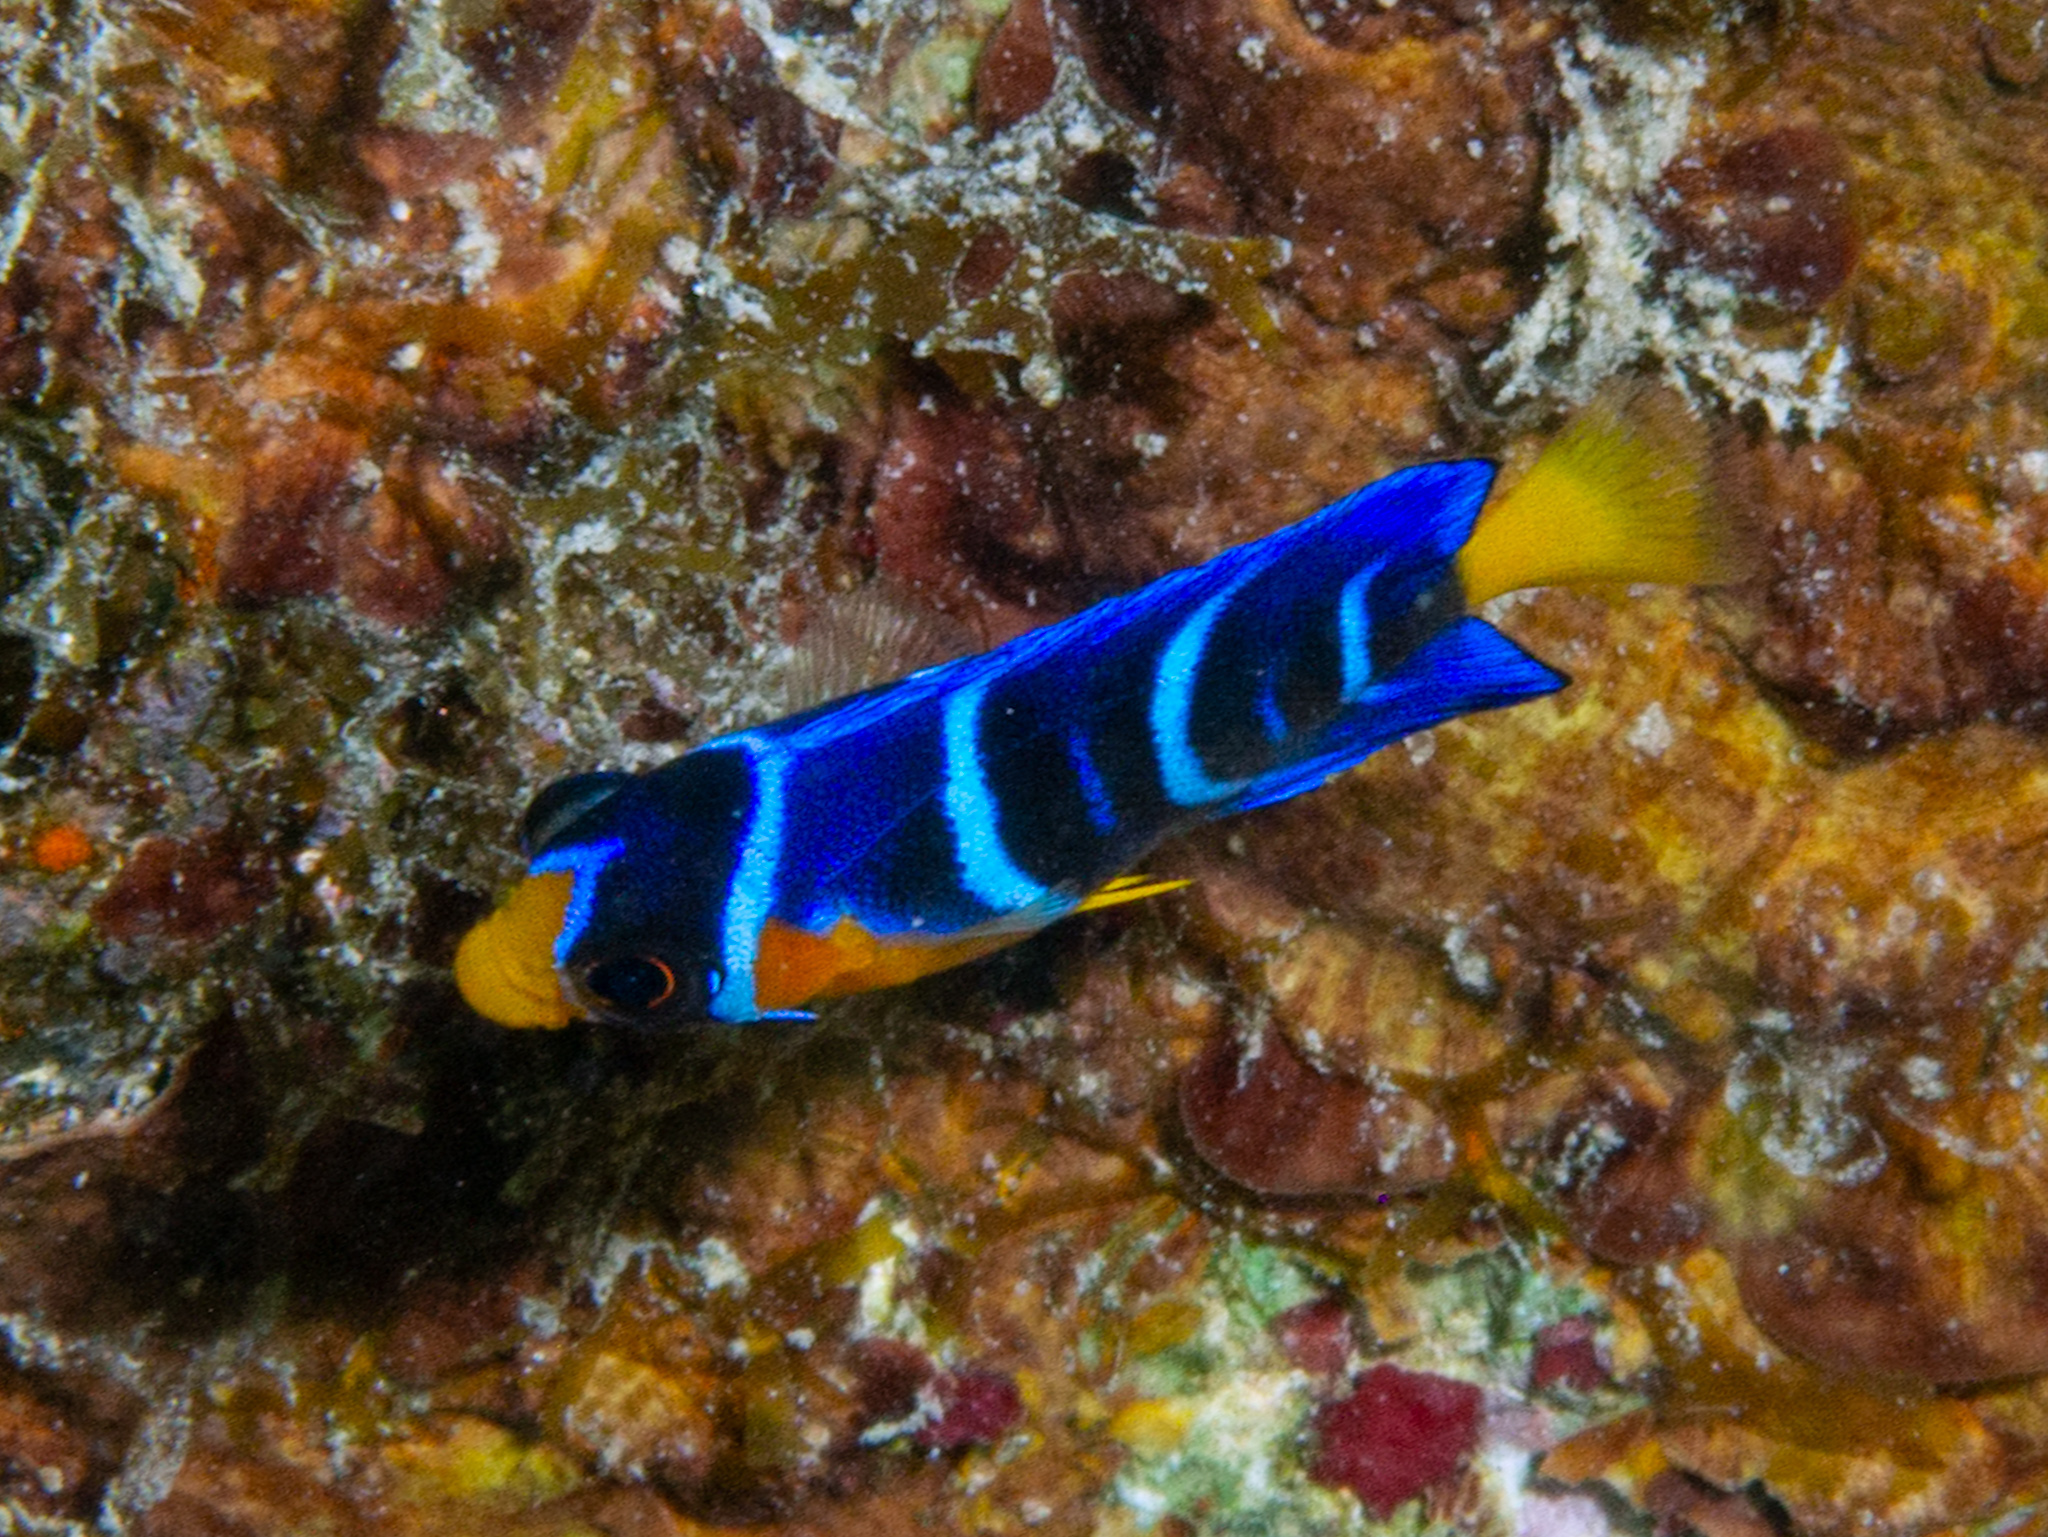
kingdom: Animalia
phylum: Chordata
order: Perciformes
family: Pomacanthidae
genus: Holacanthus
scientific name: Holacanthus ciliaris
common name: Queen angelfish
